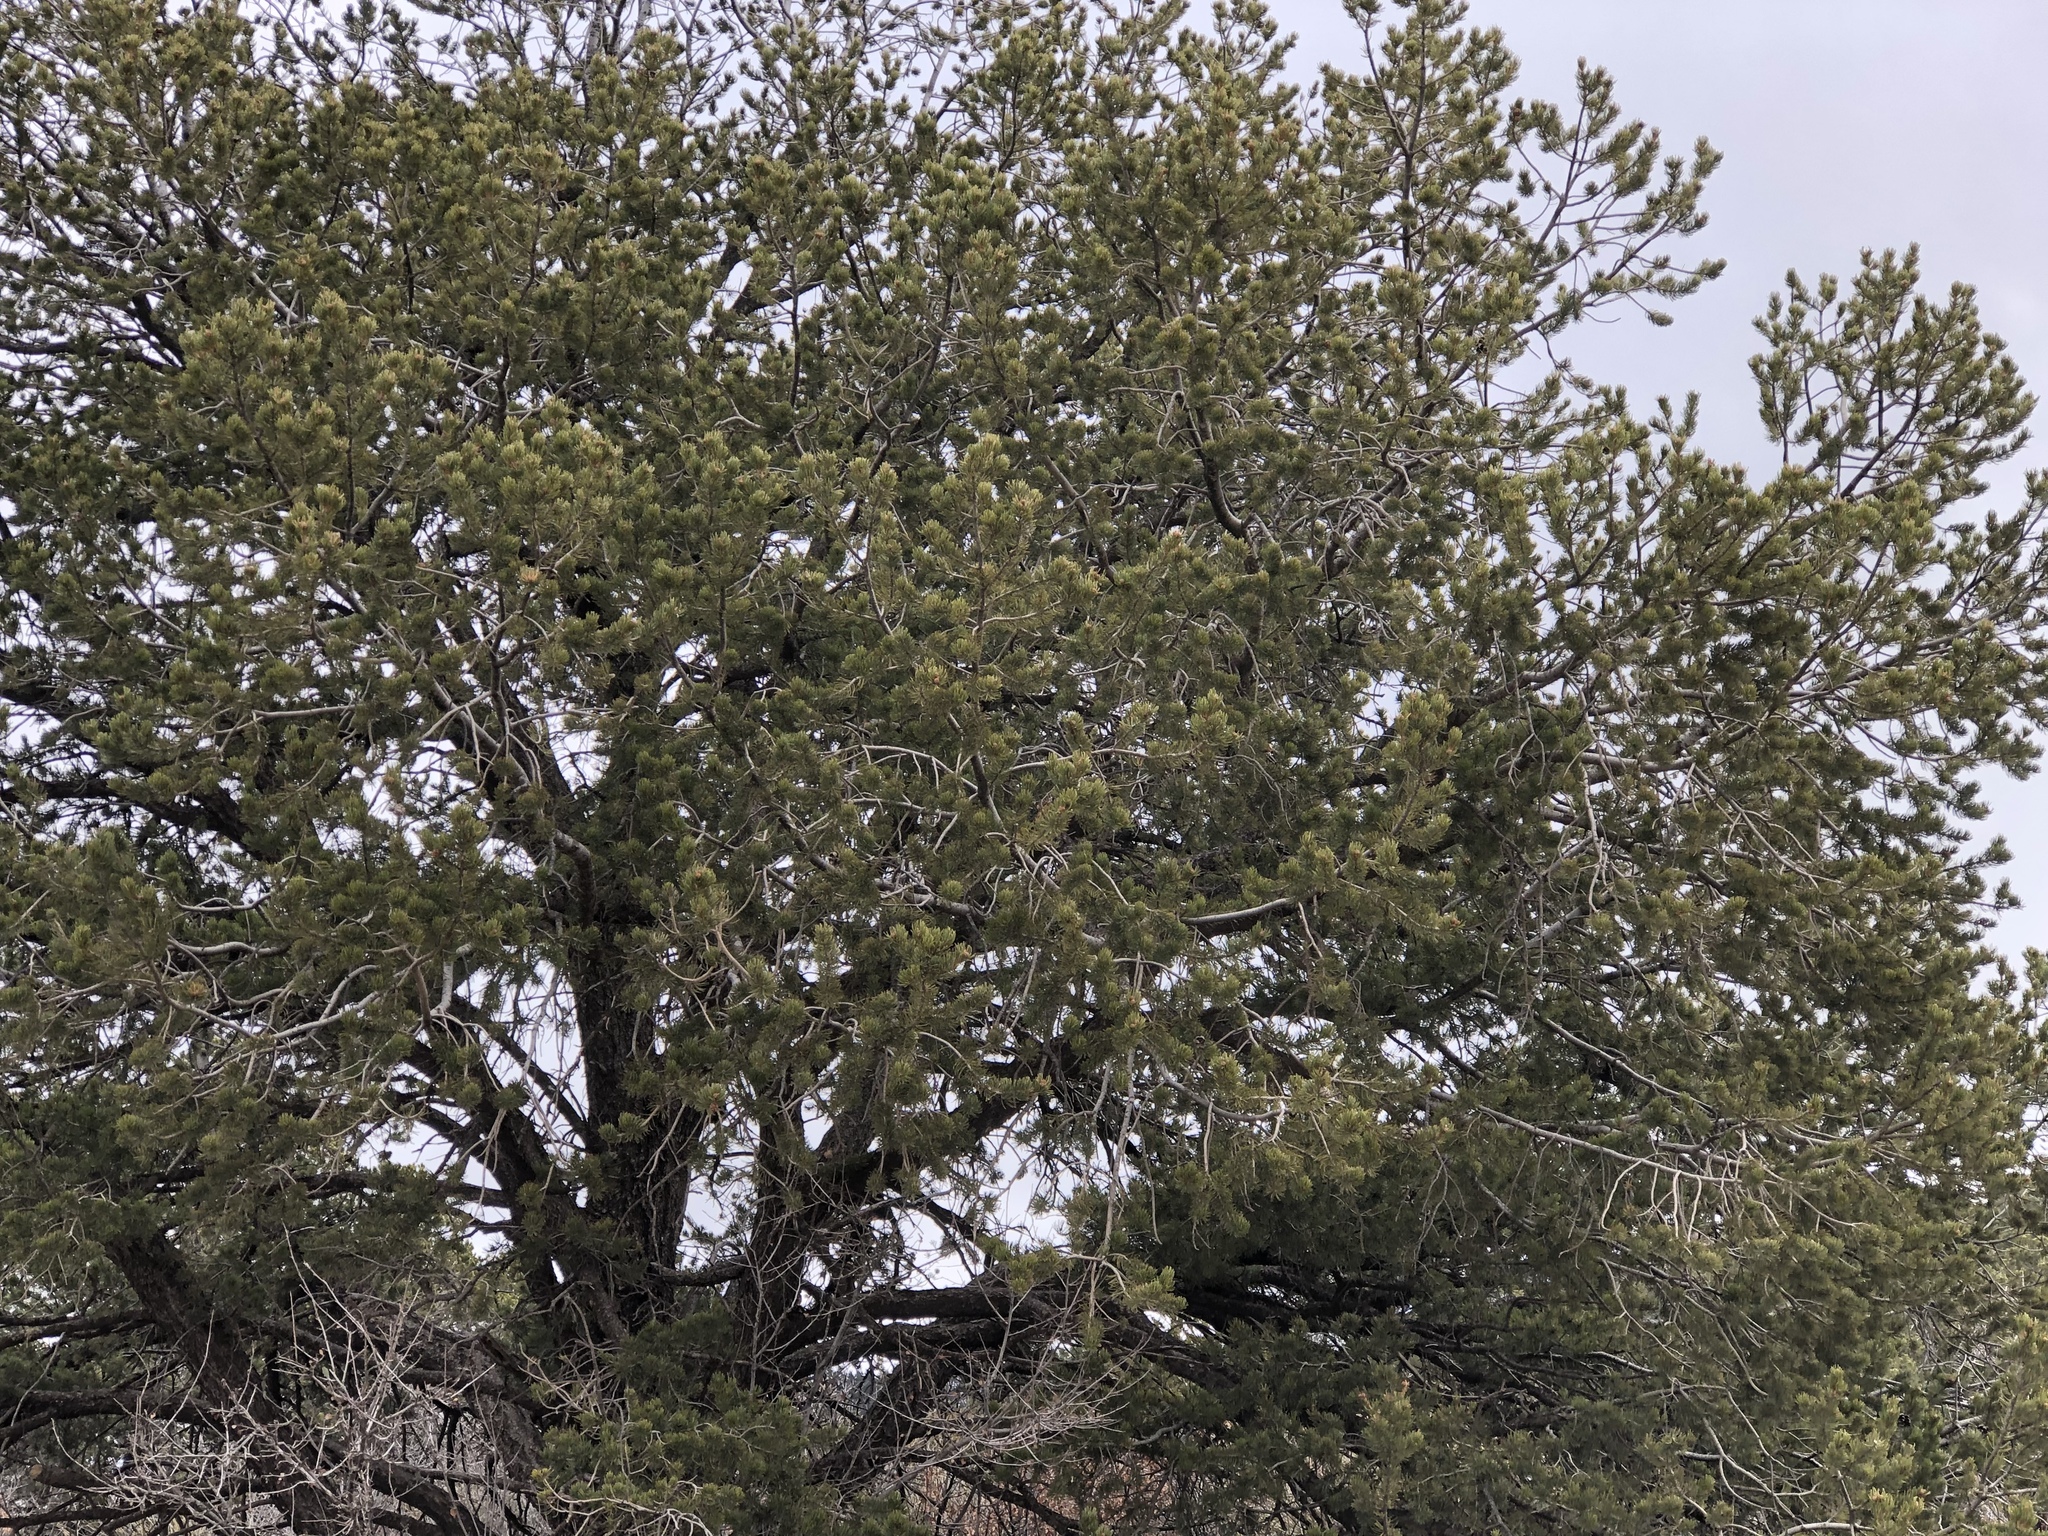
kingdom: Plantae
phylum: Tracheophyta
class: Pinopsida
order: Pinales
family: Pinaceae
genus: Pinus
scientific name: Pinus edulis
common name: Colorado pinyon
